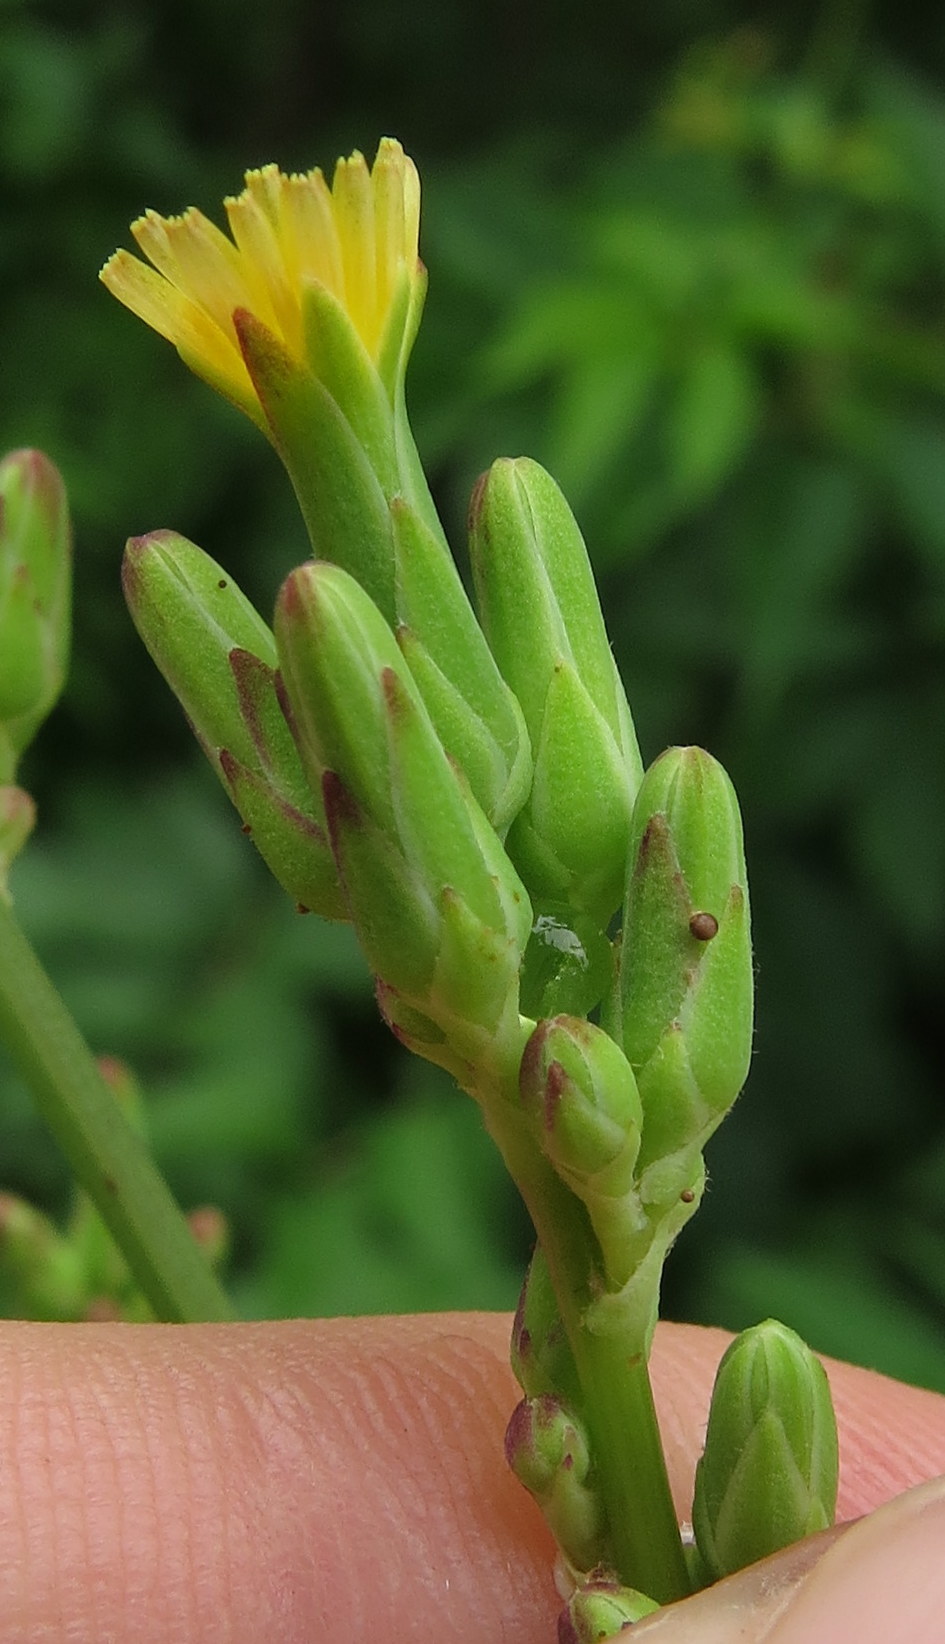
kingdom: Plantae
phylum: Tracheophyta
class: Magnoliopsida
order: Asterales
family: Asteraceae
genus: Lactuca
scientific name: Lactuca canadensis
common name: Canada lettuce
